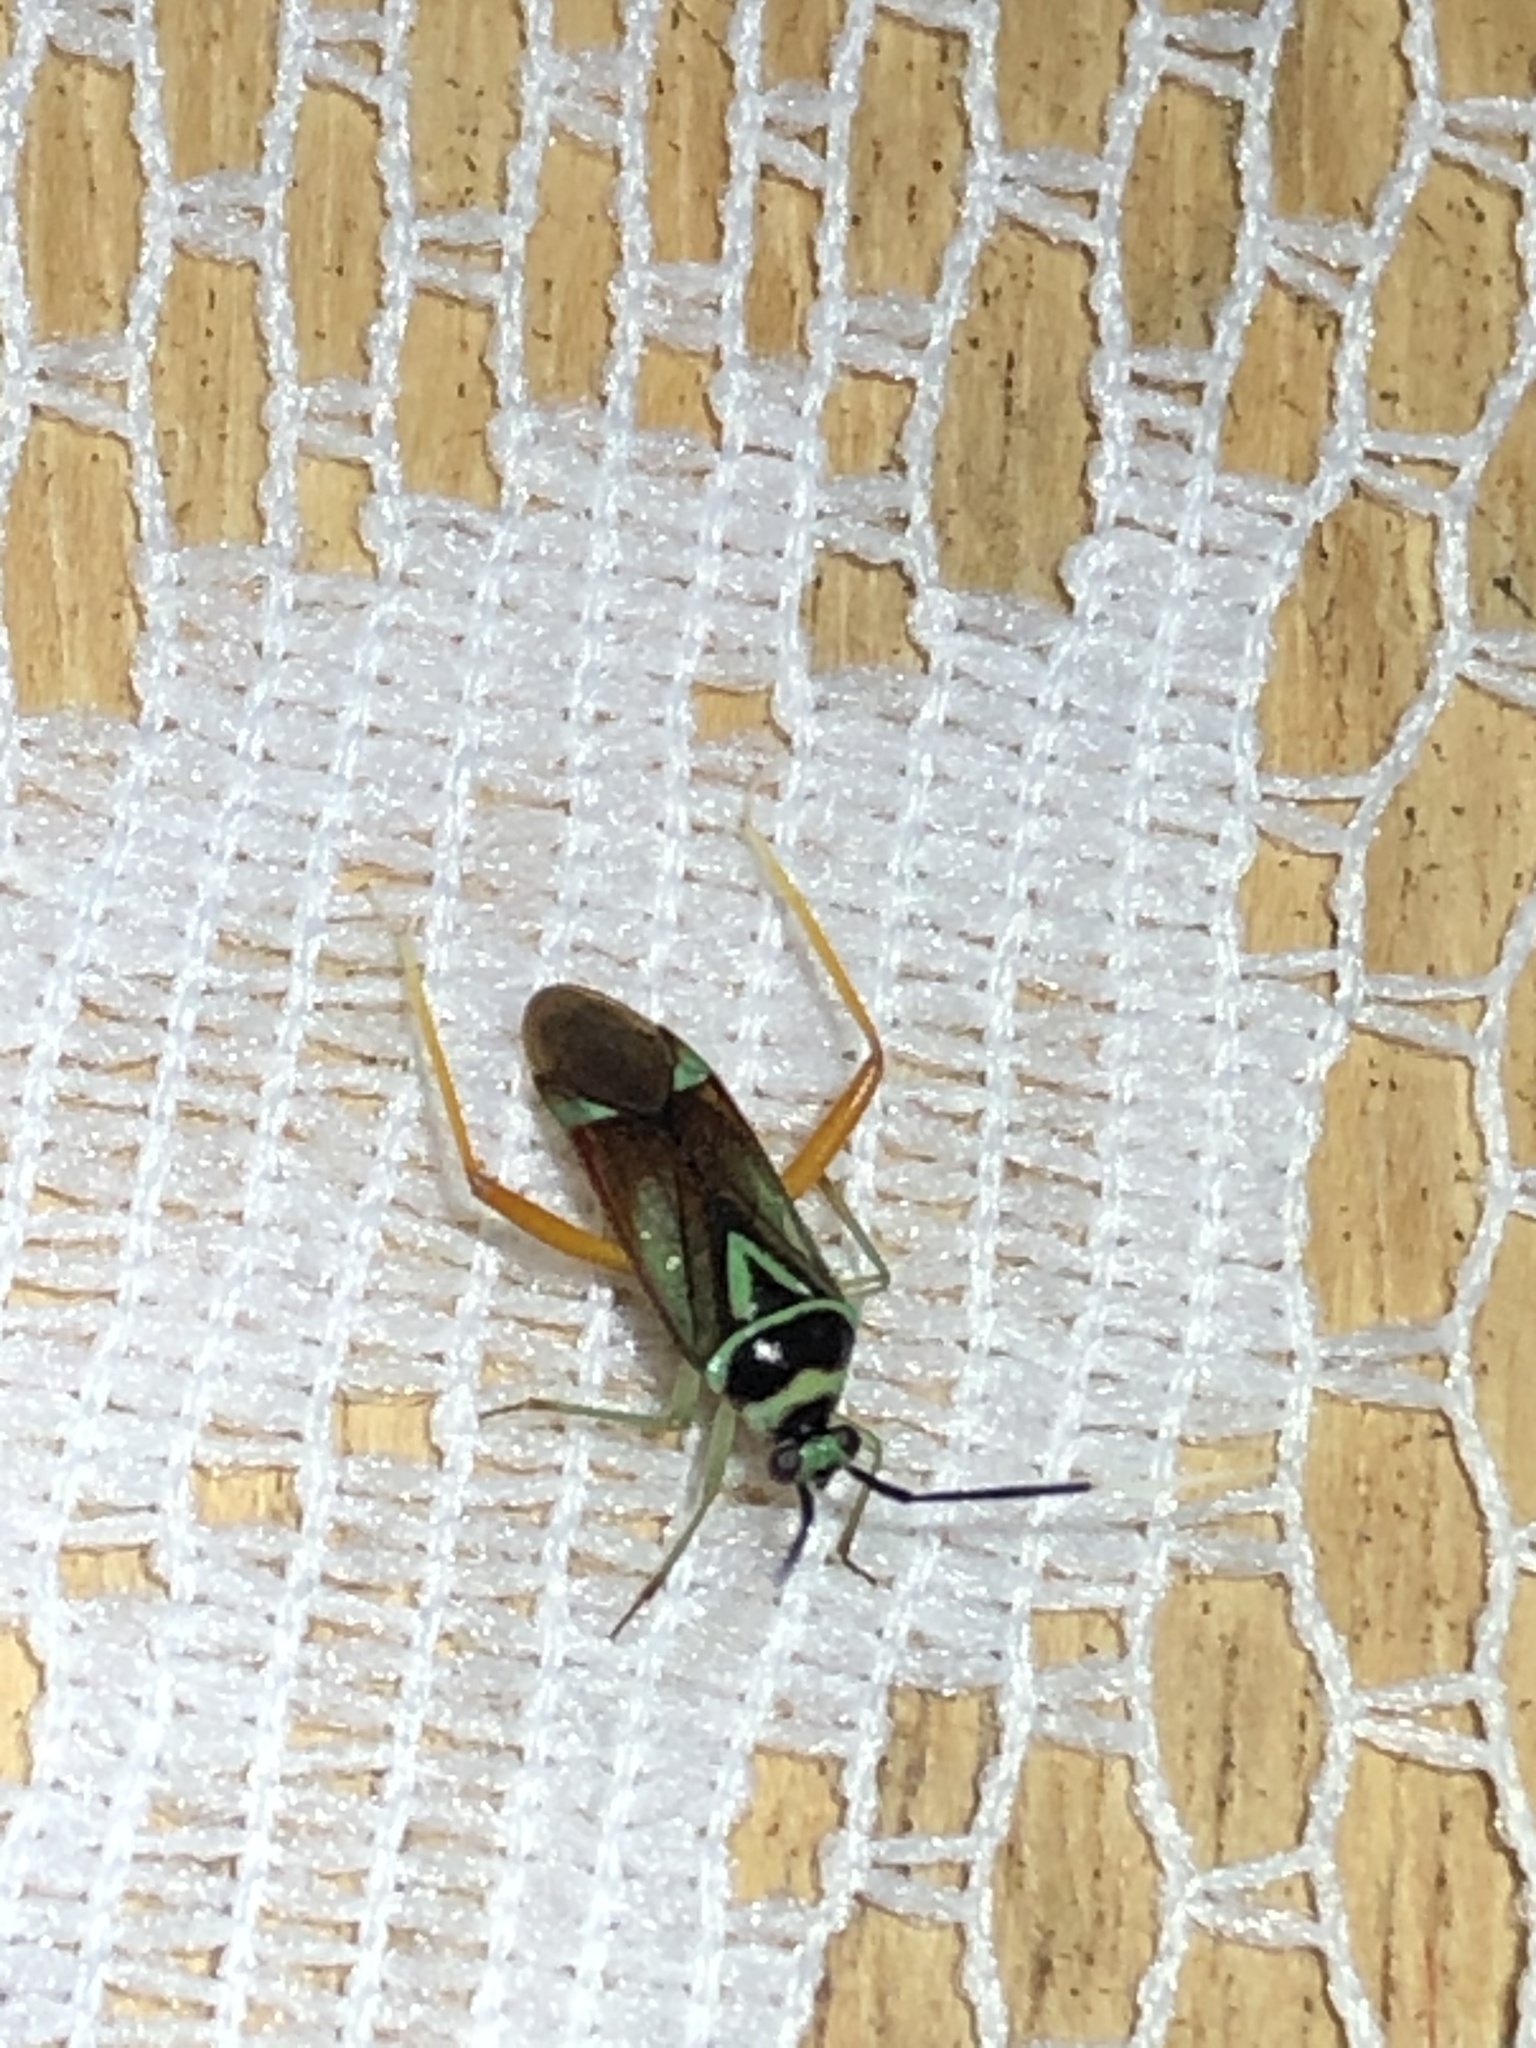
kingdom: Animalia
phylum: Arthropoda
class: Insecta
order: Hemiptera
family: Miridae
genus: Calondas
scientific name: Calondas fasciatus
